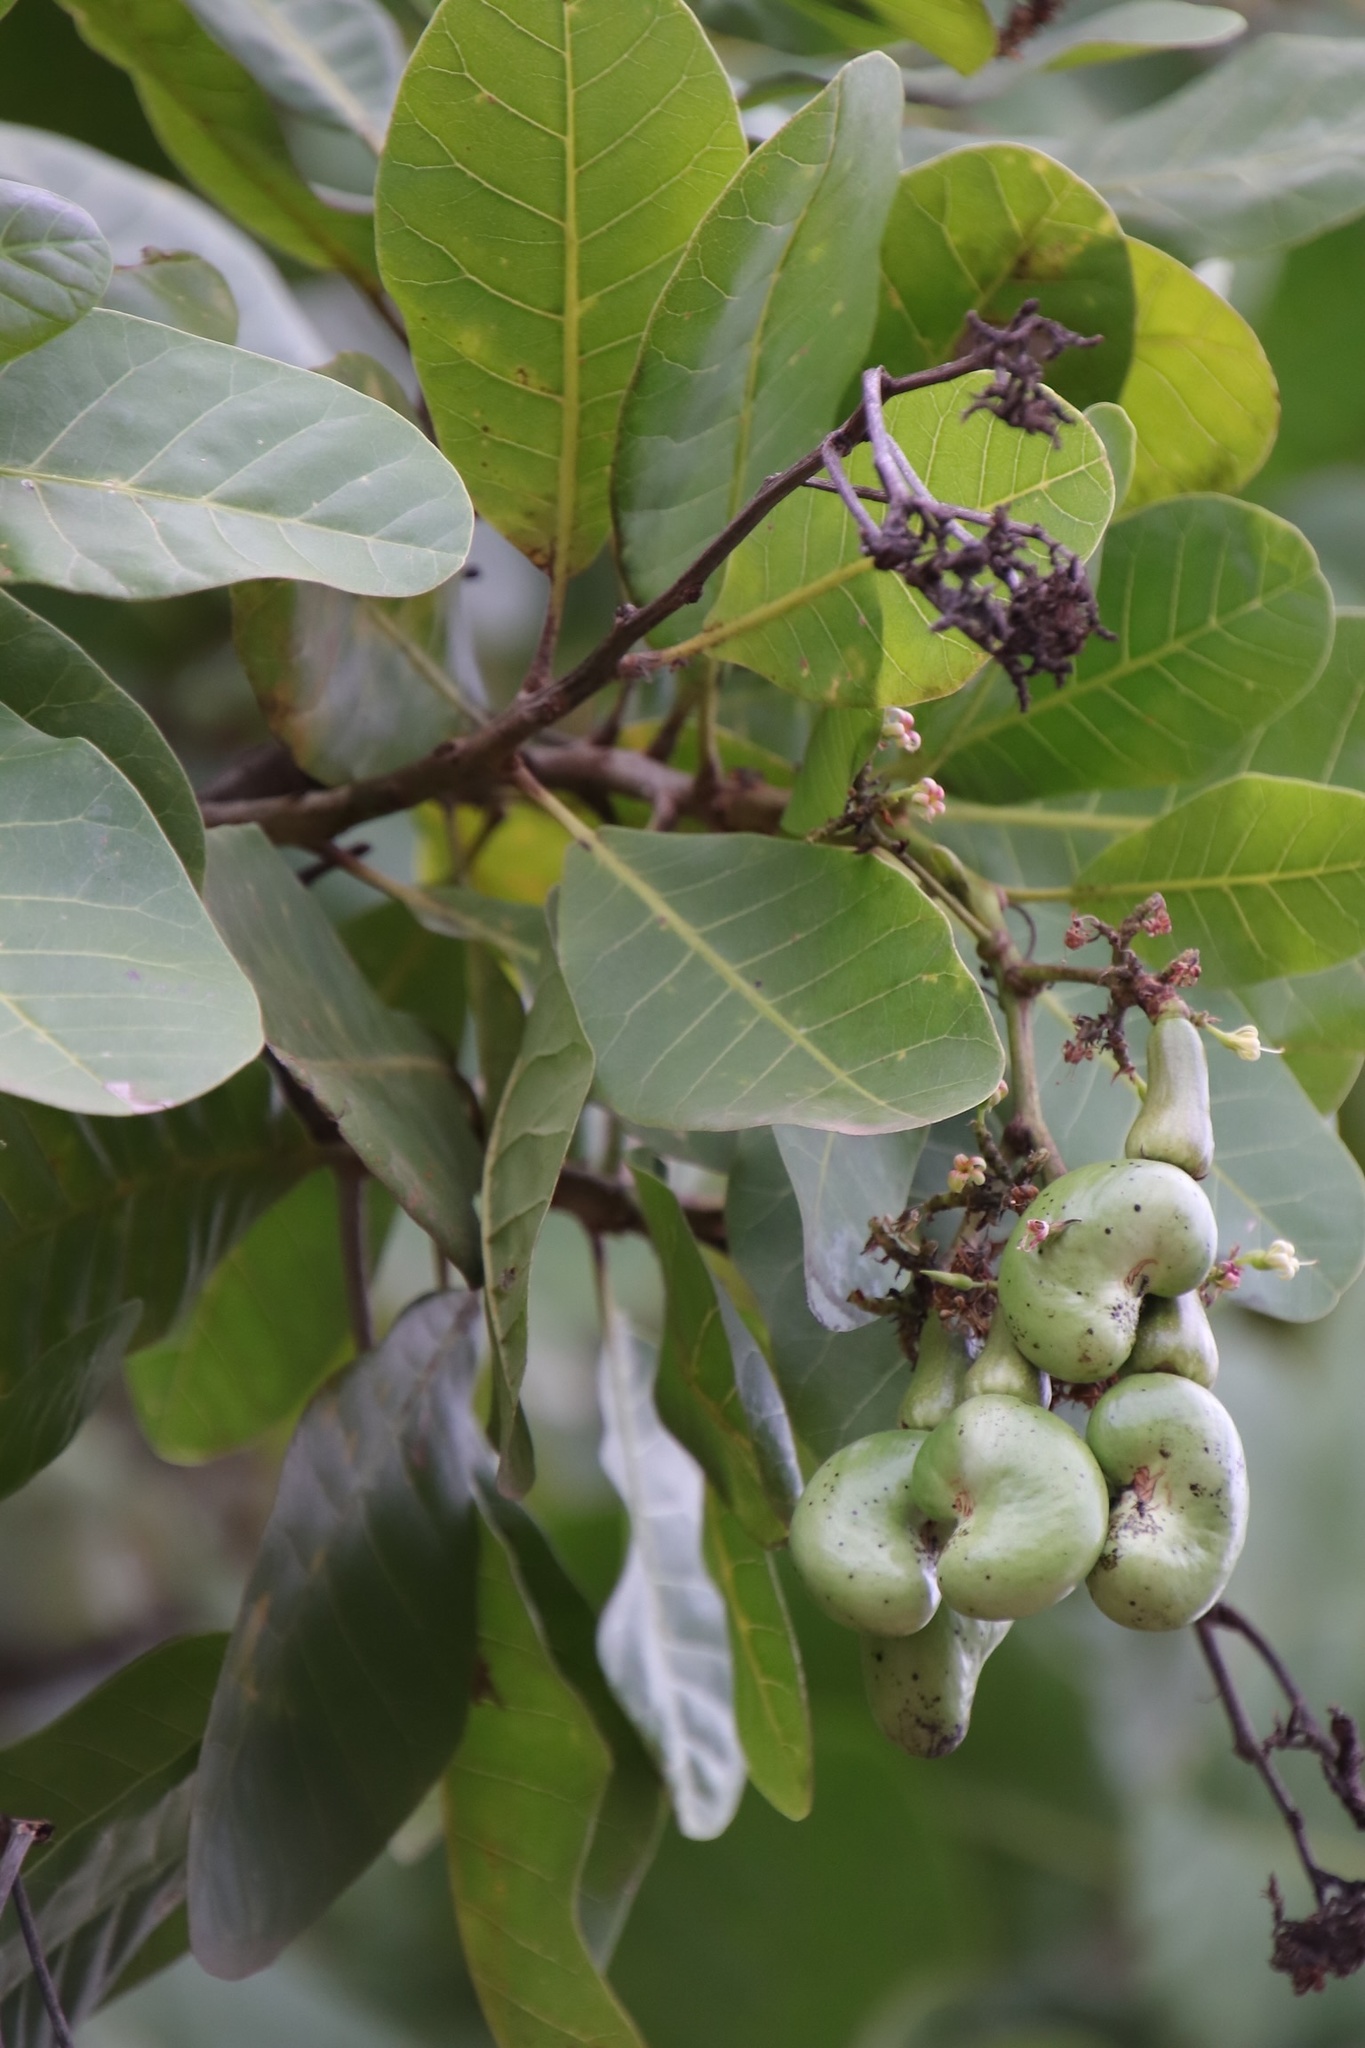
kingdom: Plantae
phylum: Tracheophyta
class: Magnoliopsida
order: Sapindales
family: Anacardiaceae
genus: Anacardium
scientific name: Anacardium occidentale
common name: Cashew
